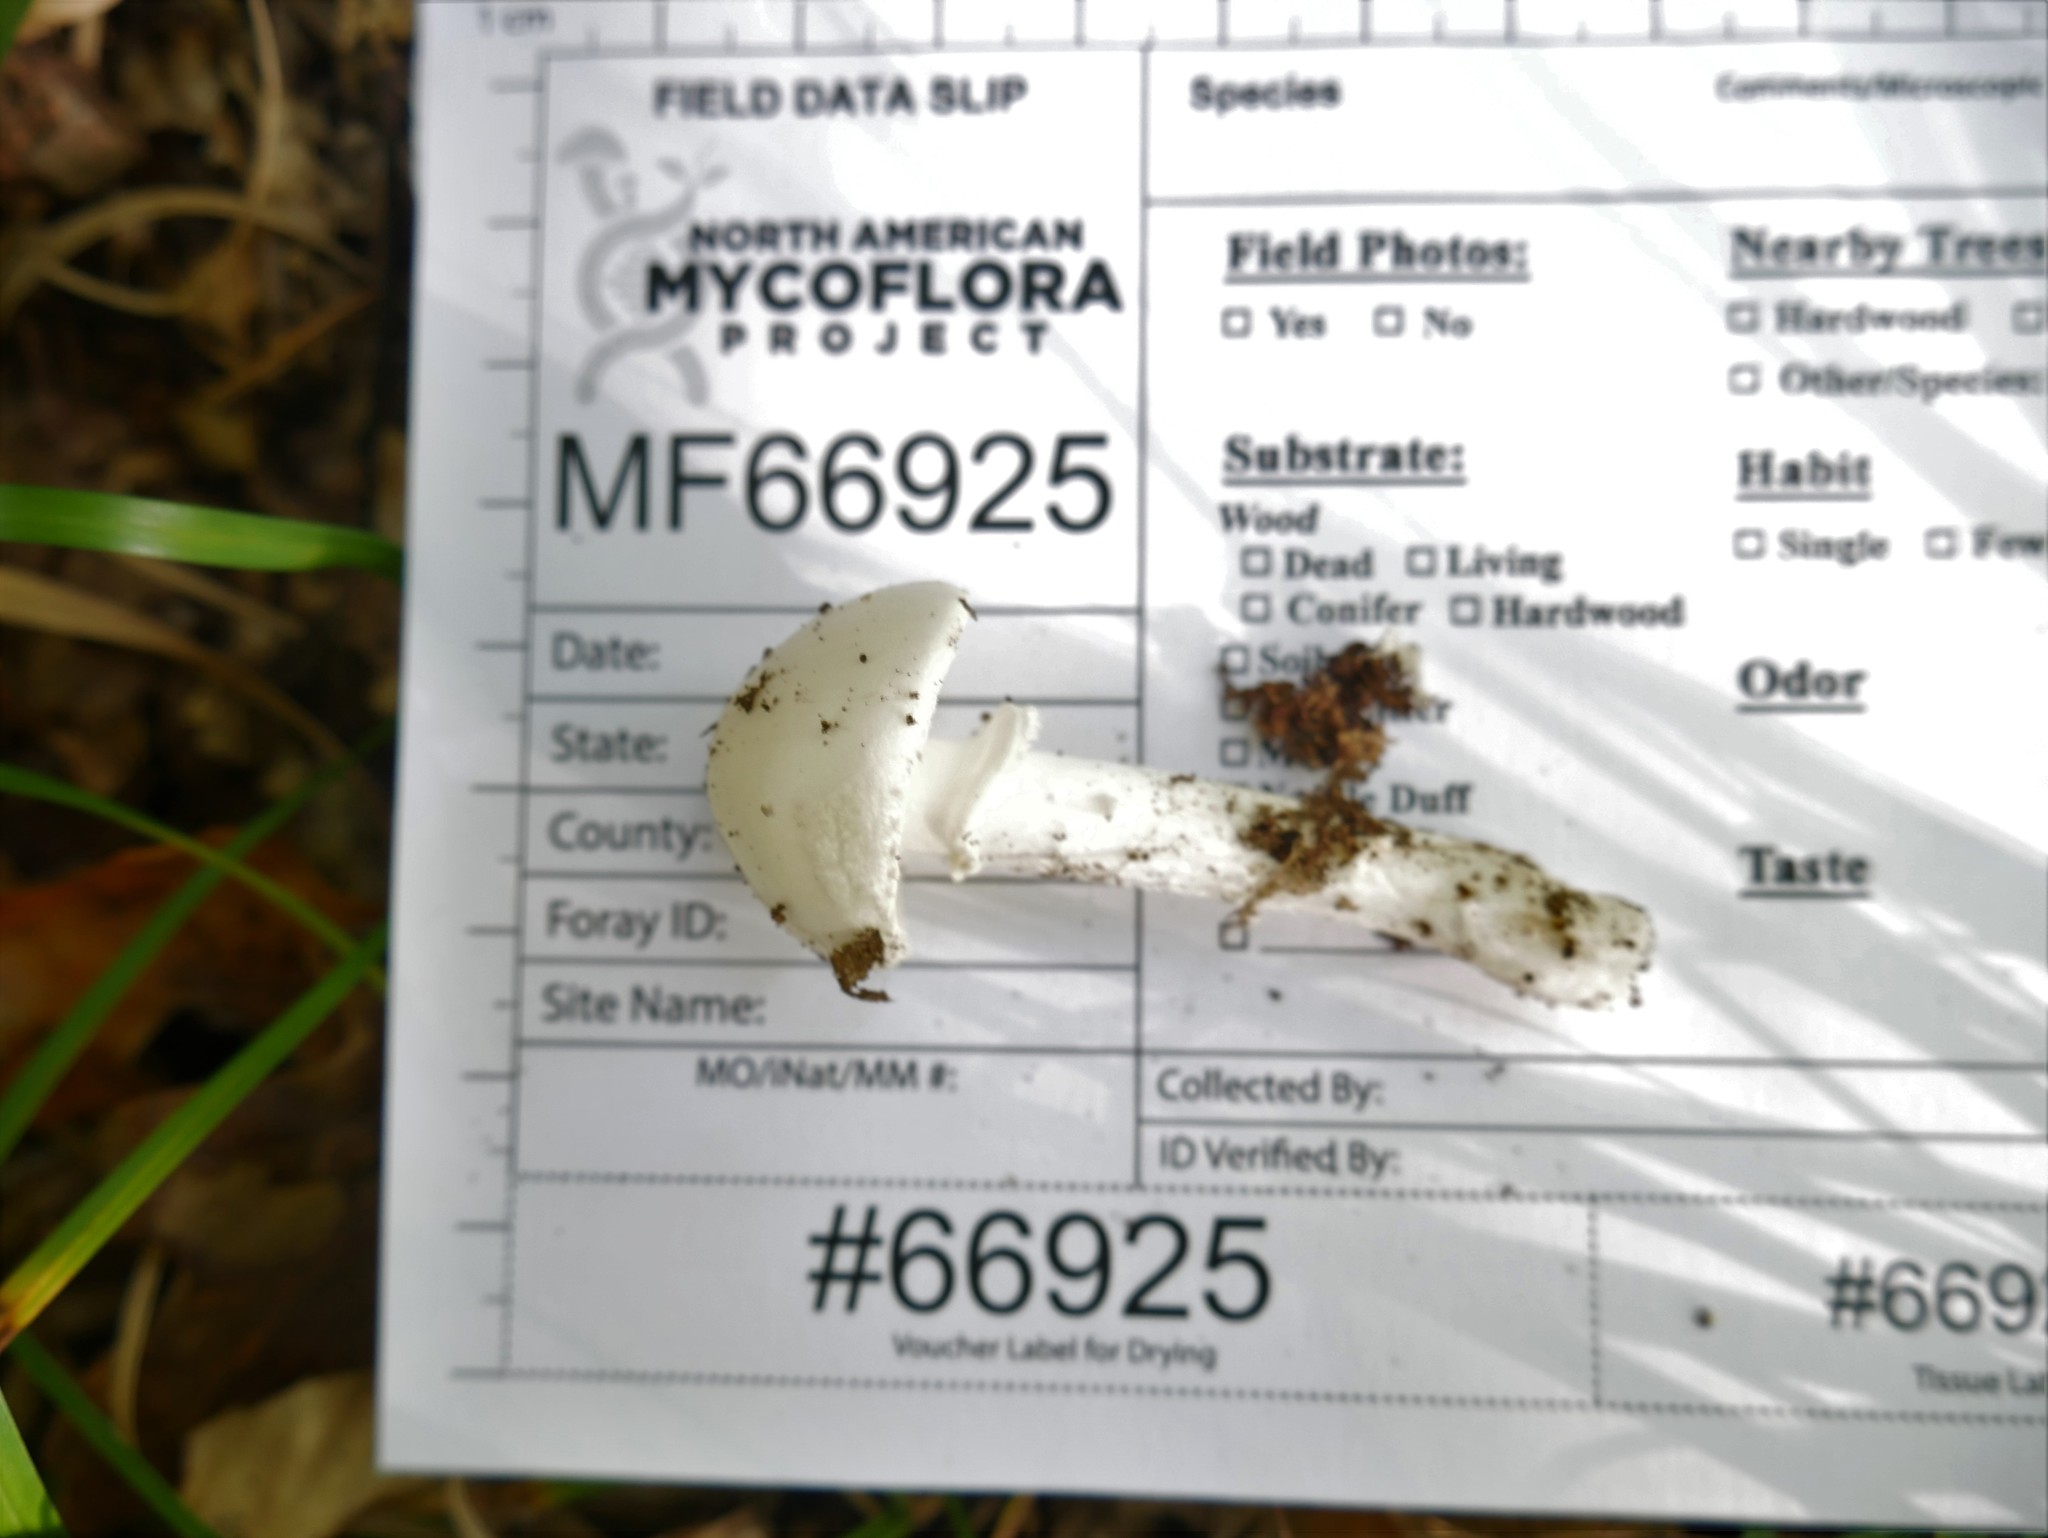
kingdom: Fungi
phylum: Basidiomycota
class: Agaricomycetes
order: Agaricales
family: Amanitaceae
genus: Amanita
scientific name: Amanita lavendula
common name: Coker's lavender staining amanita
